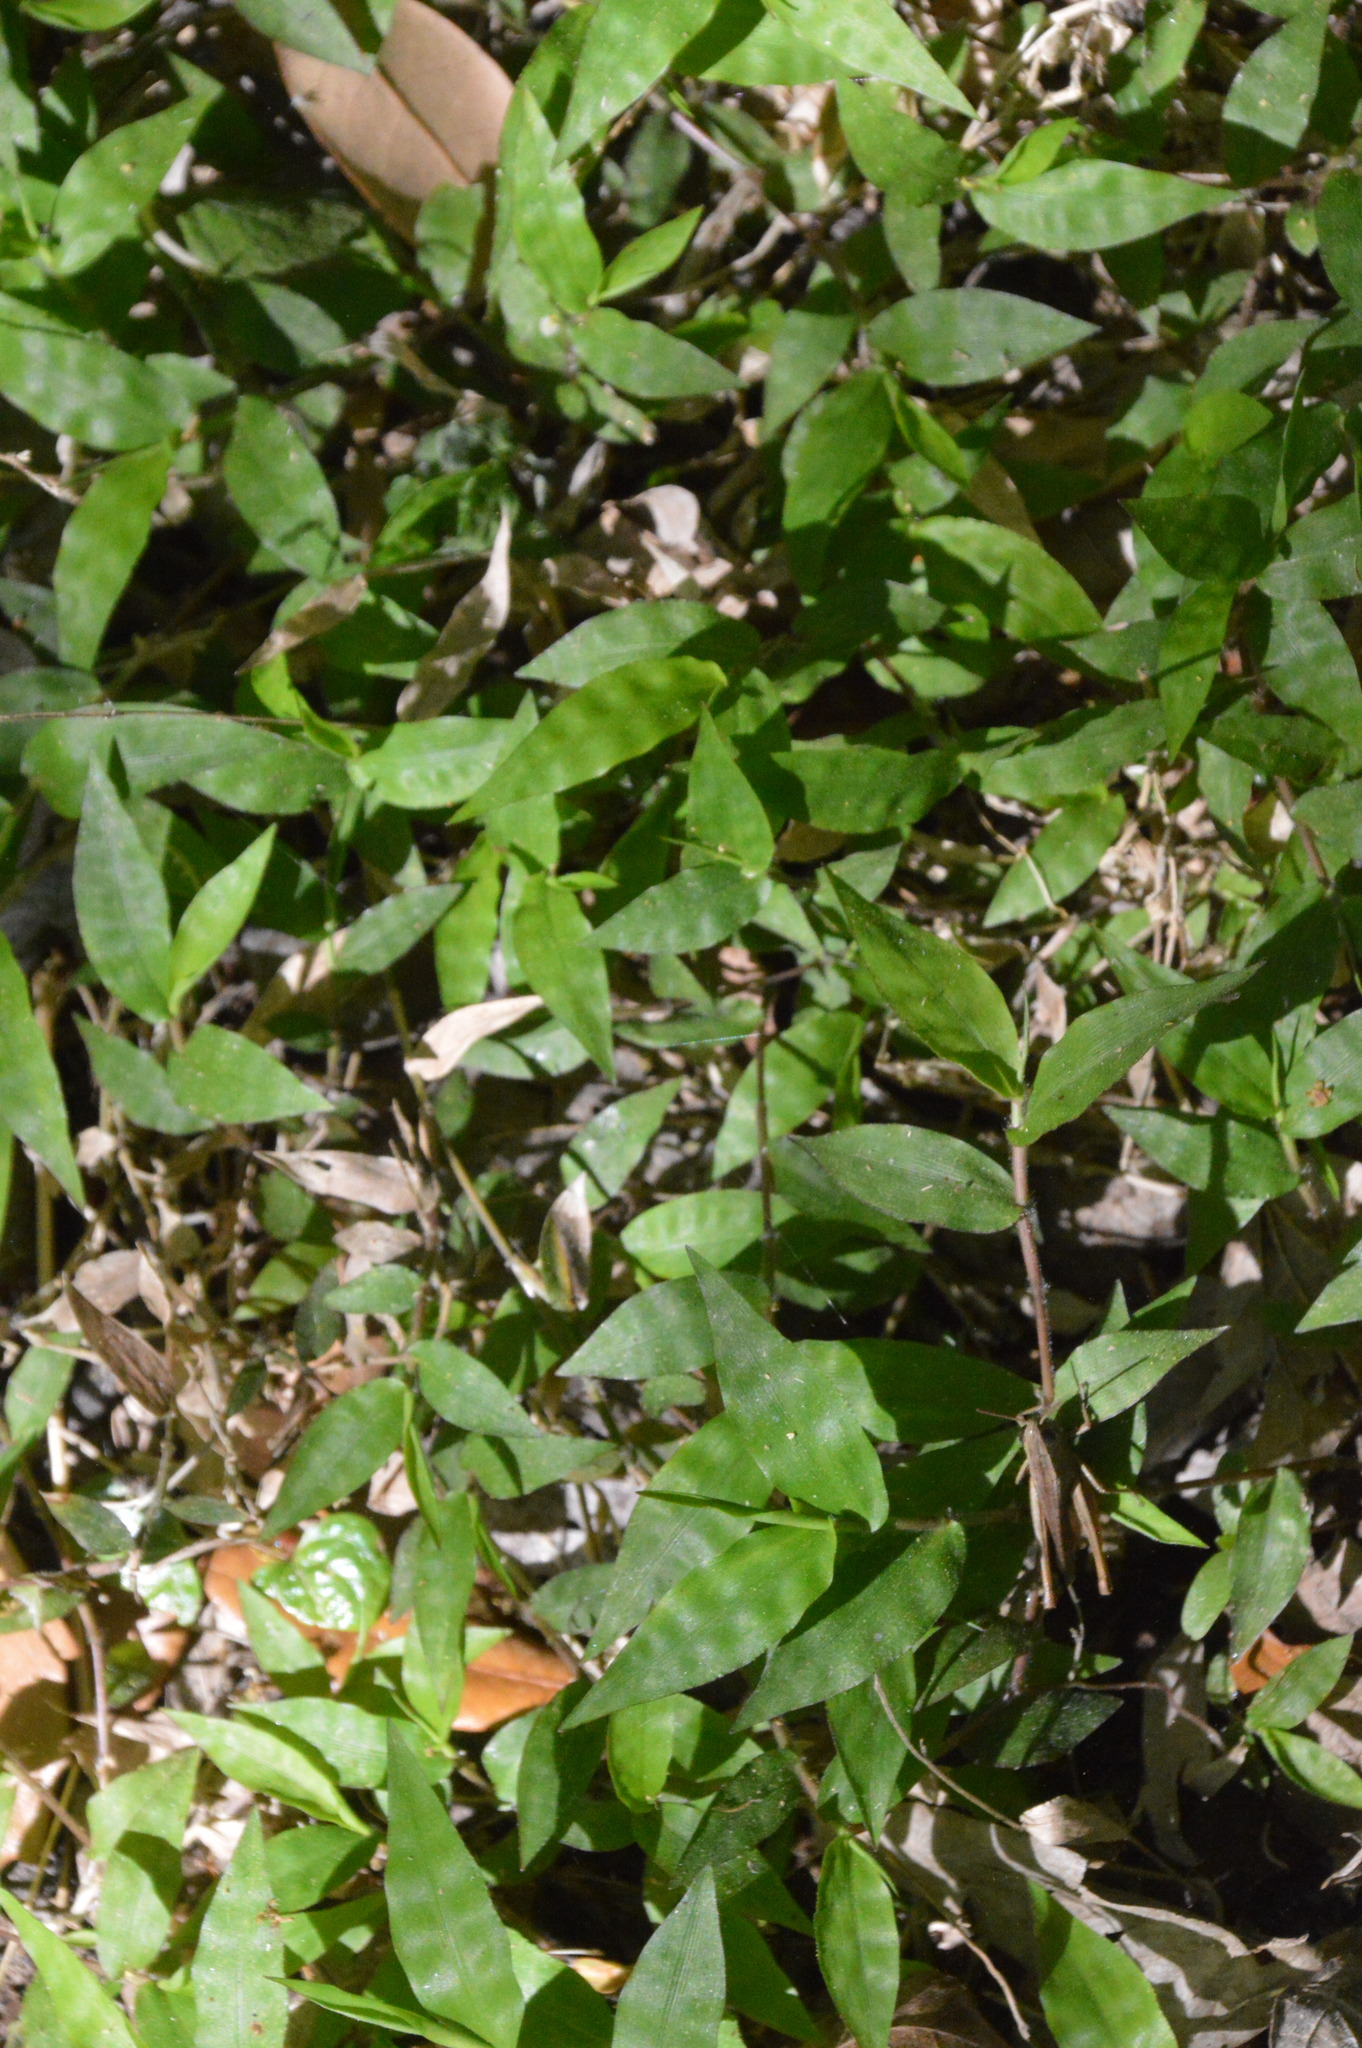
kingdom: Plantae
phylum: Tracheophyta
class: Liliopsida
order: Poales
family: Poaceae
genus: Oplismenus
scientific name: Oplismenus hirtellus
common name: Basketgrass
